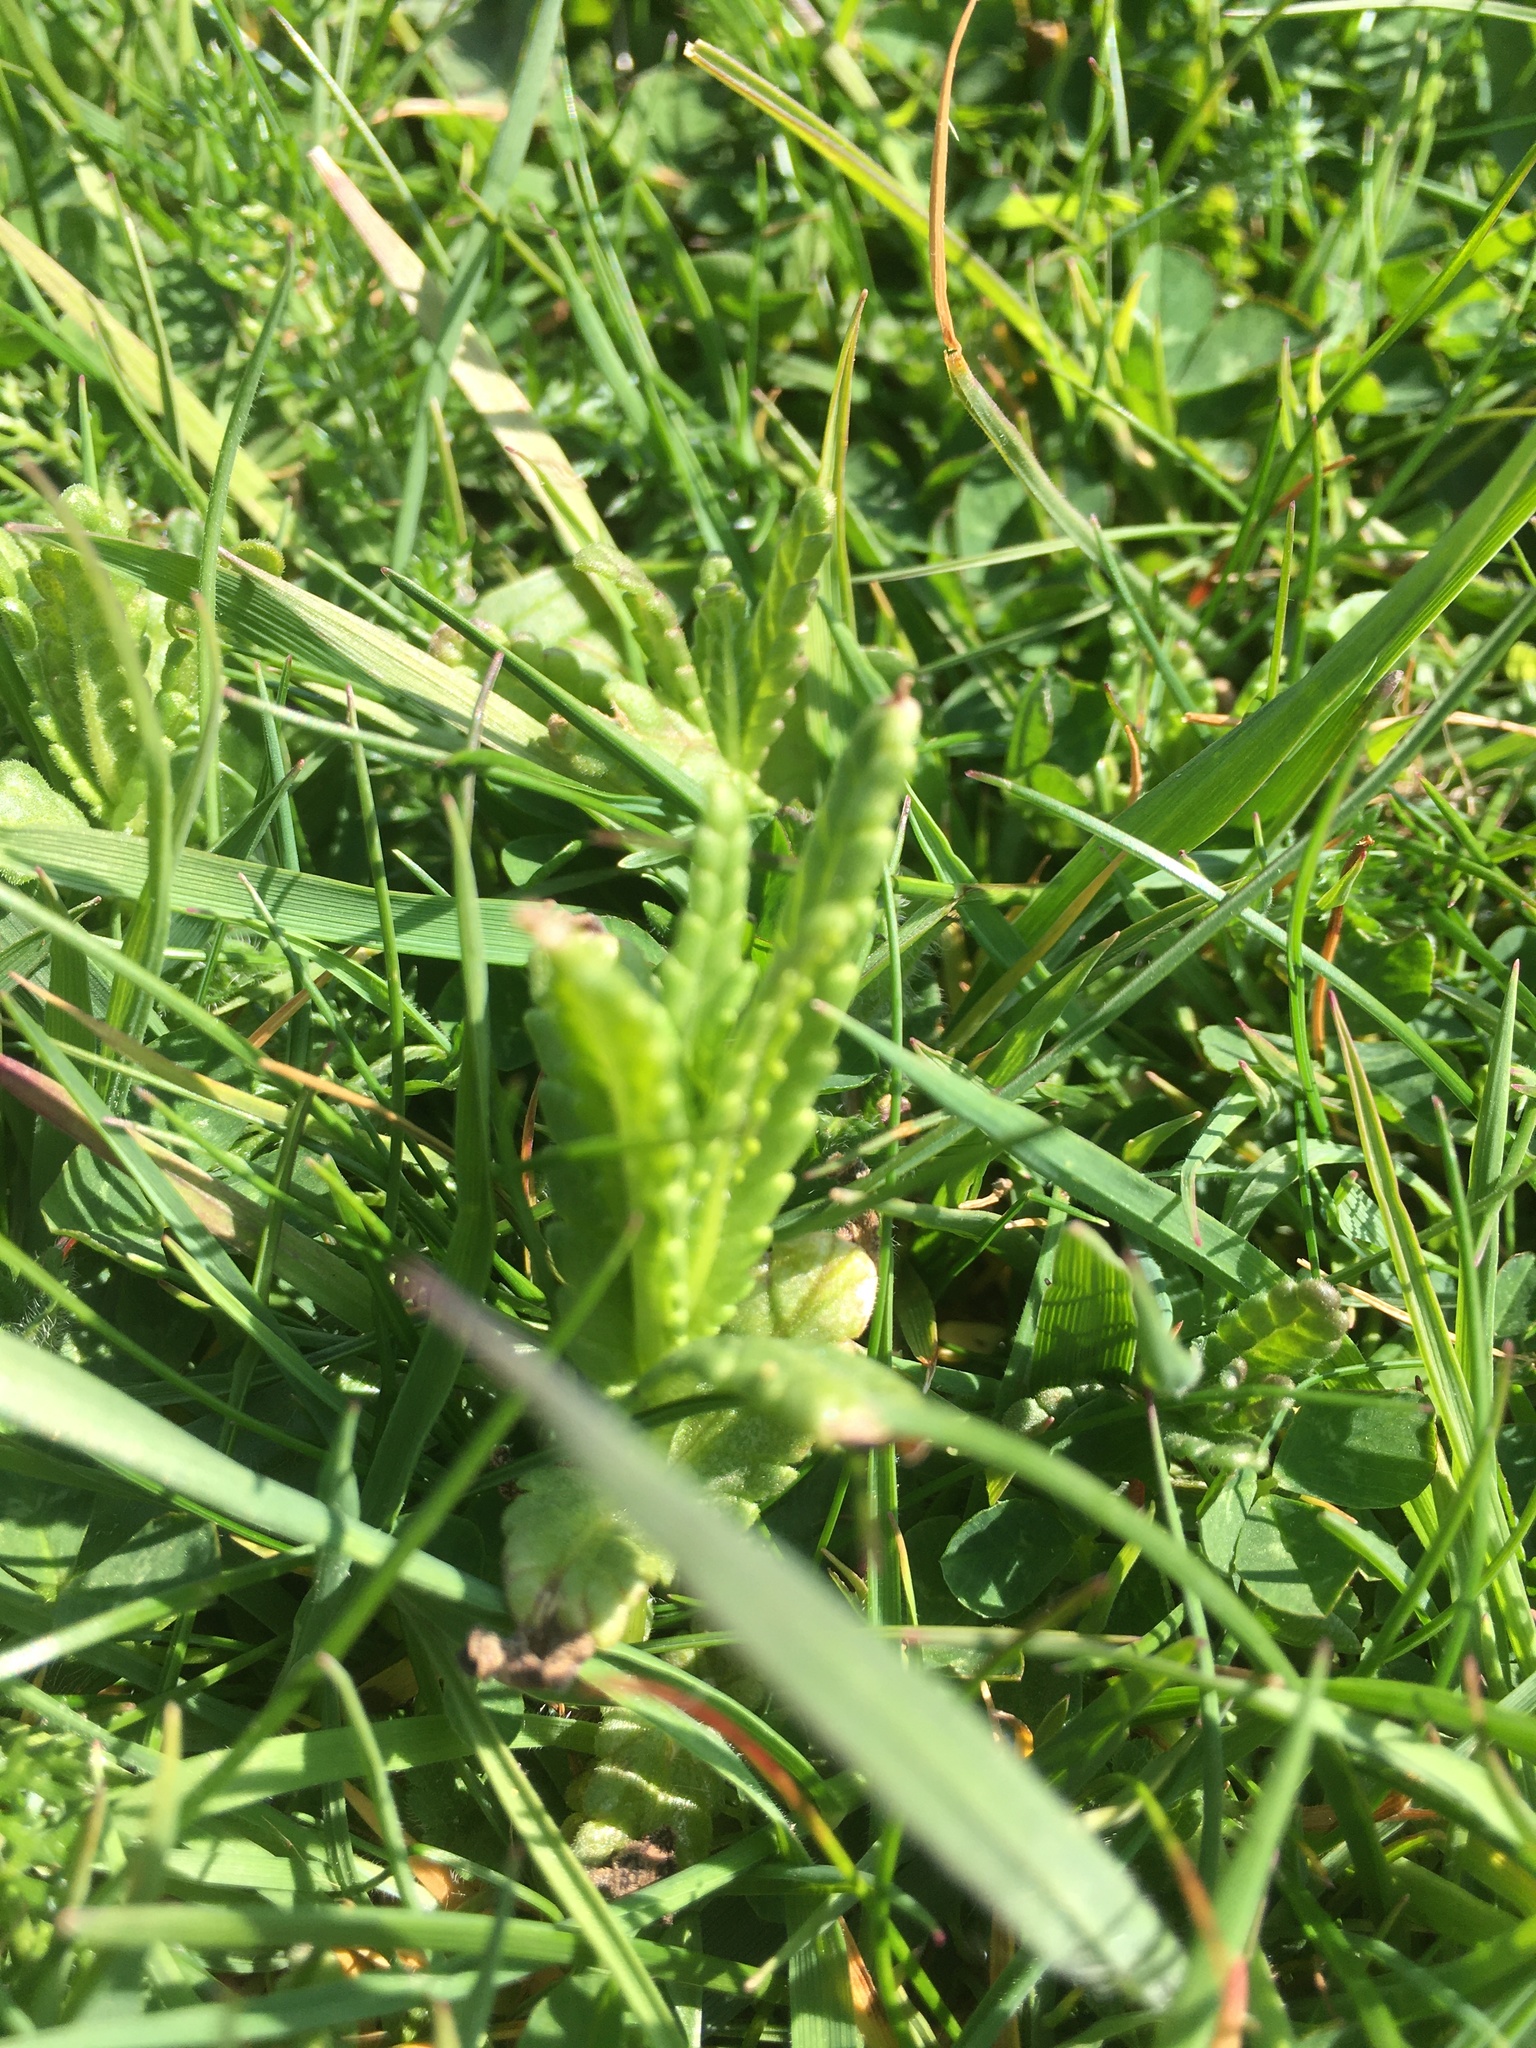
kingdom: Plantae
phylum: Tracheophyta
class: Magnoliopsida
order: Lamiales
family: Orobanchaceae
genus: Rhinanthus
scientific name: Rhinanthus minor
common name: Yellow-rattle
